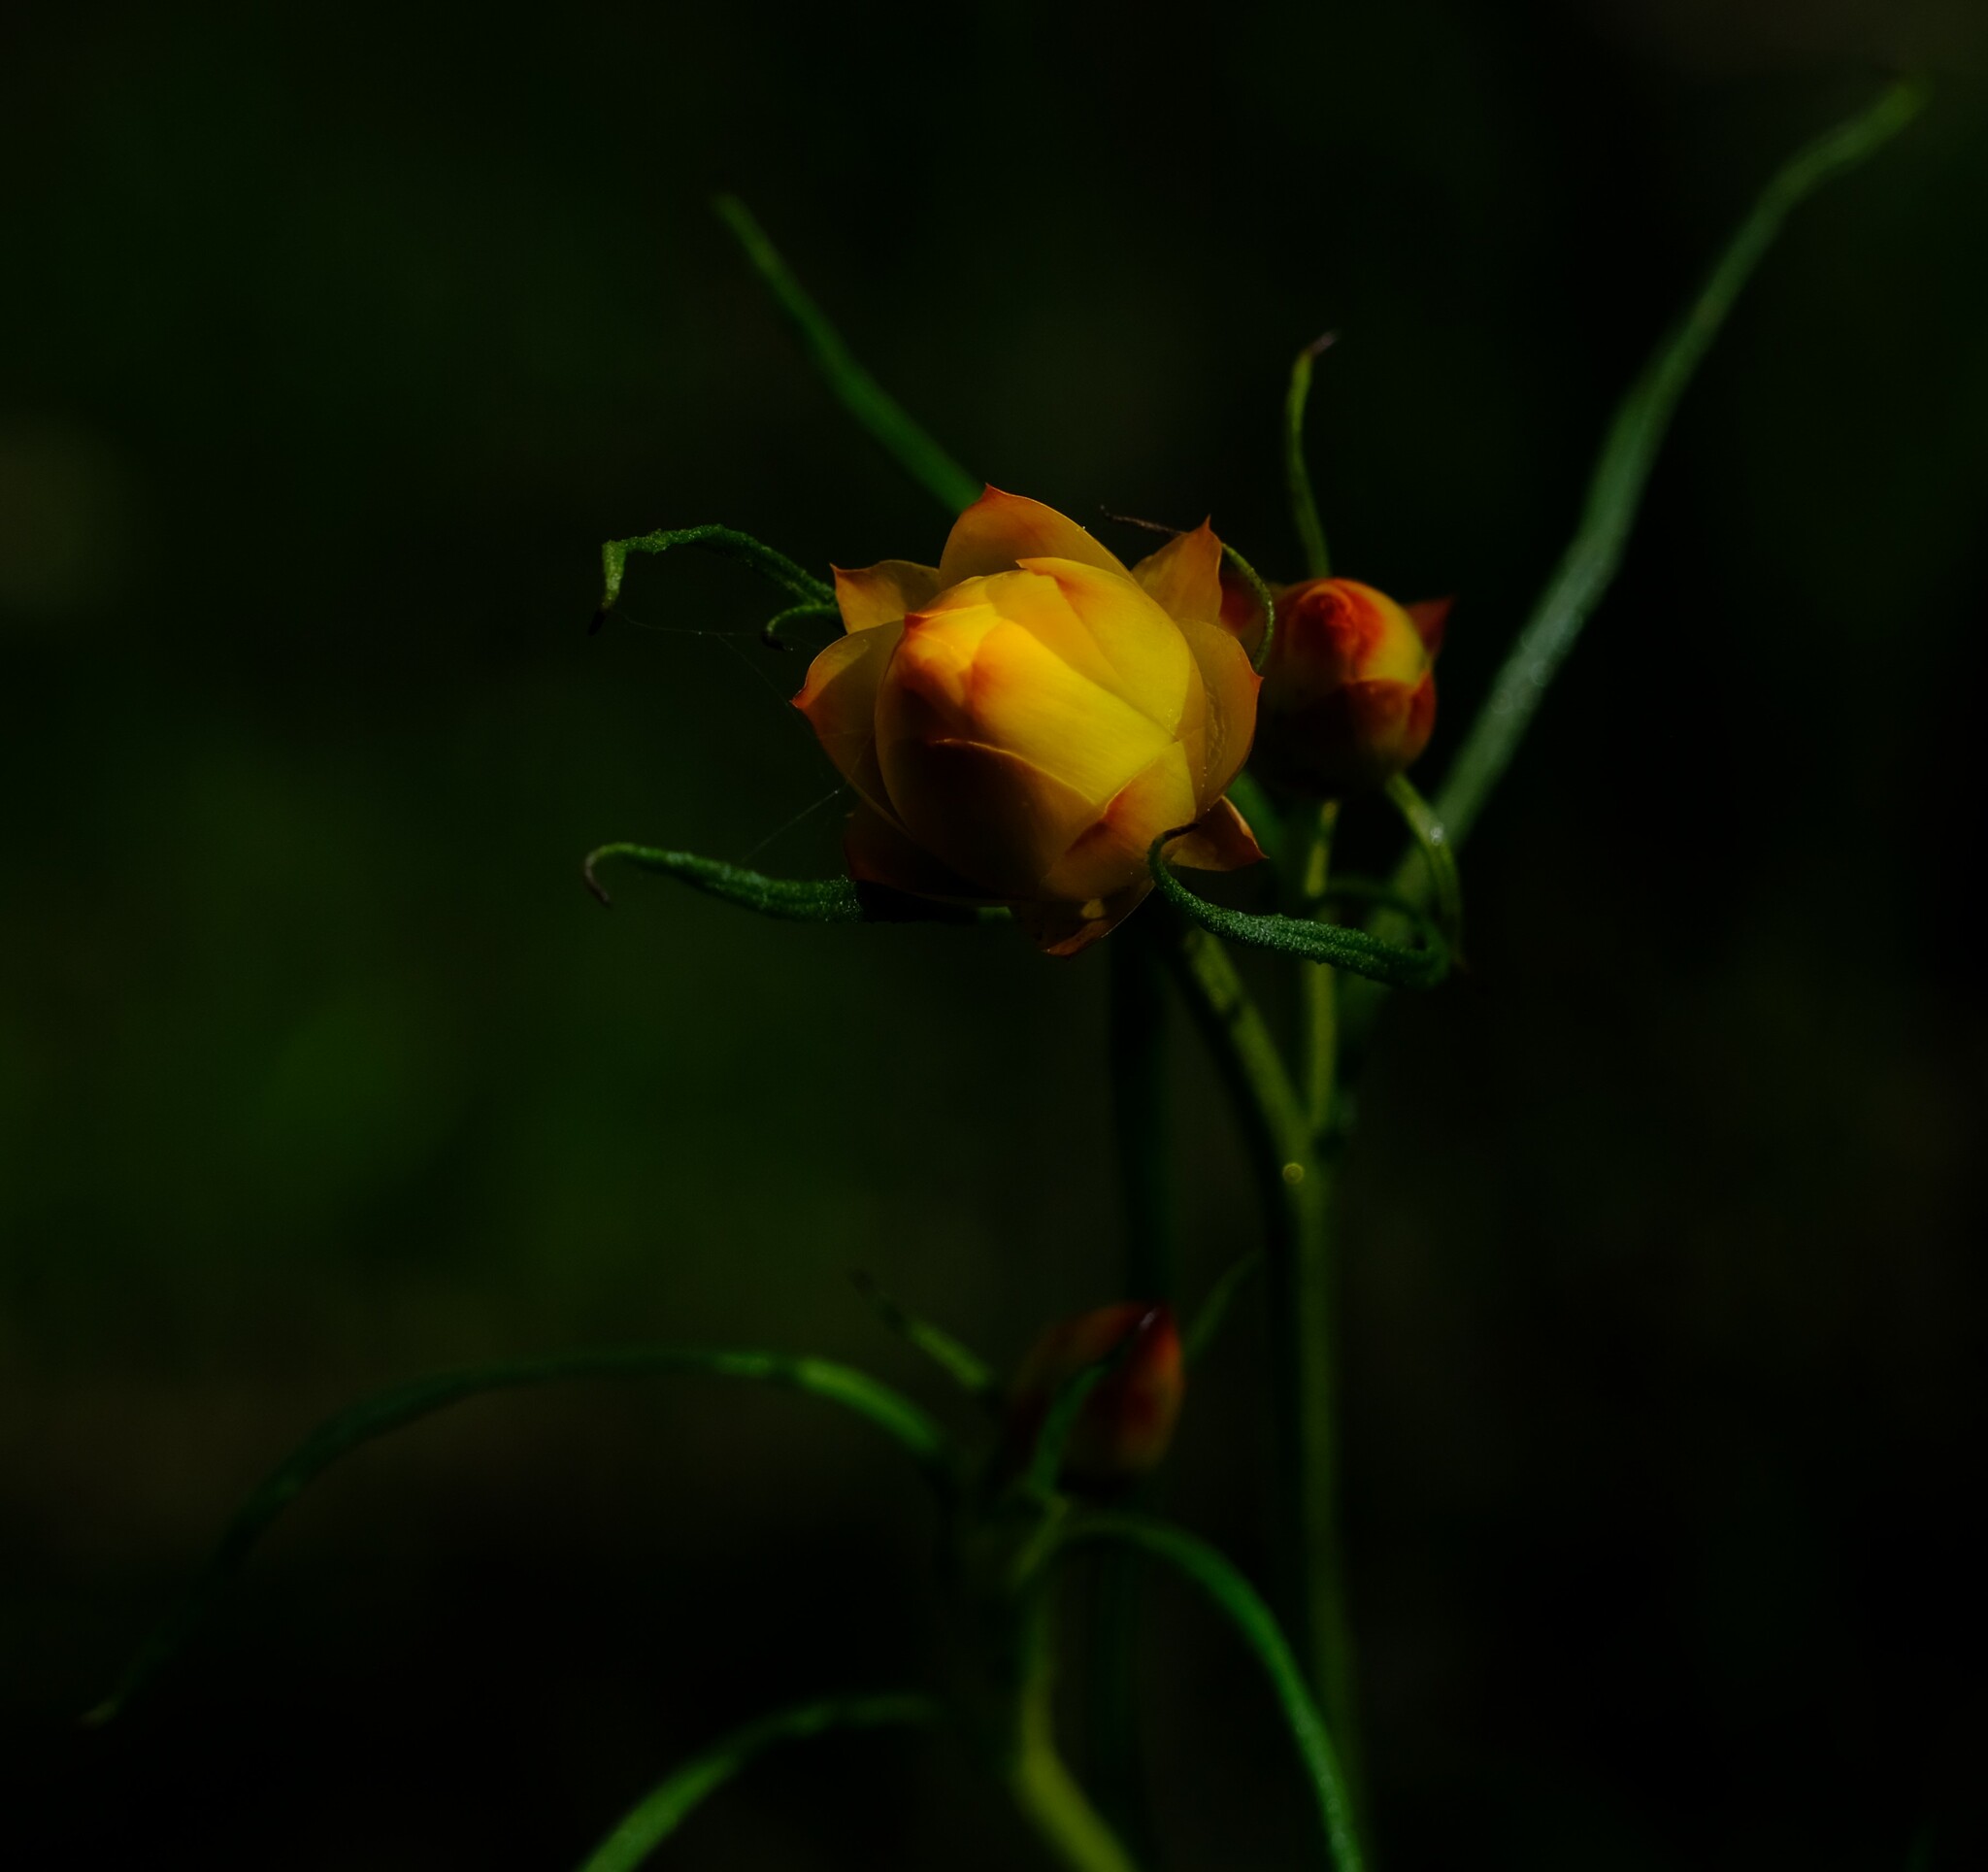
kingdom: Plantae
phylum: Tracheophyta
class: Magnoliopsida
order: Asterales
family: Asteraceae
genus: Xerochrysum
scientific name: Xerochrysum viscosum
